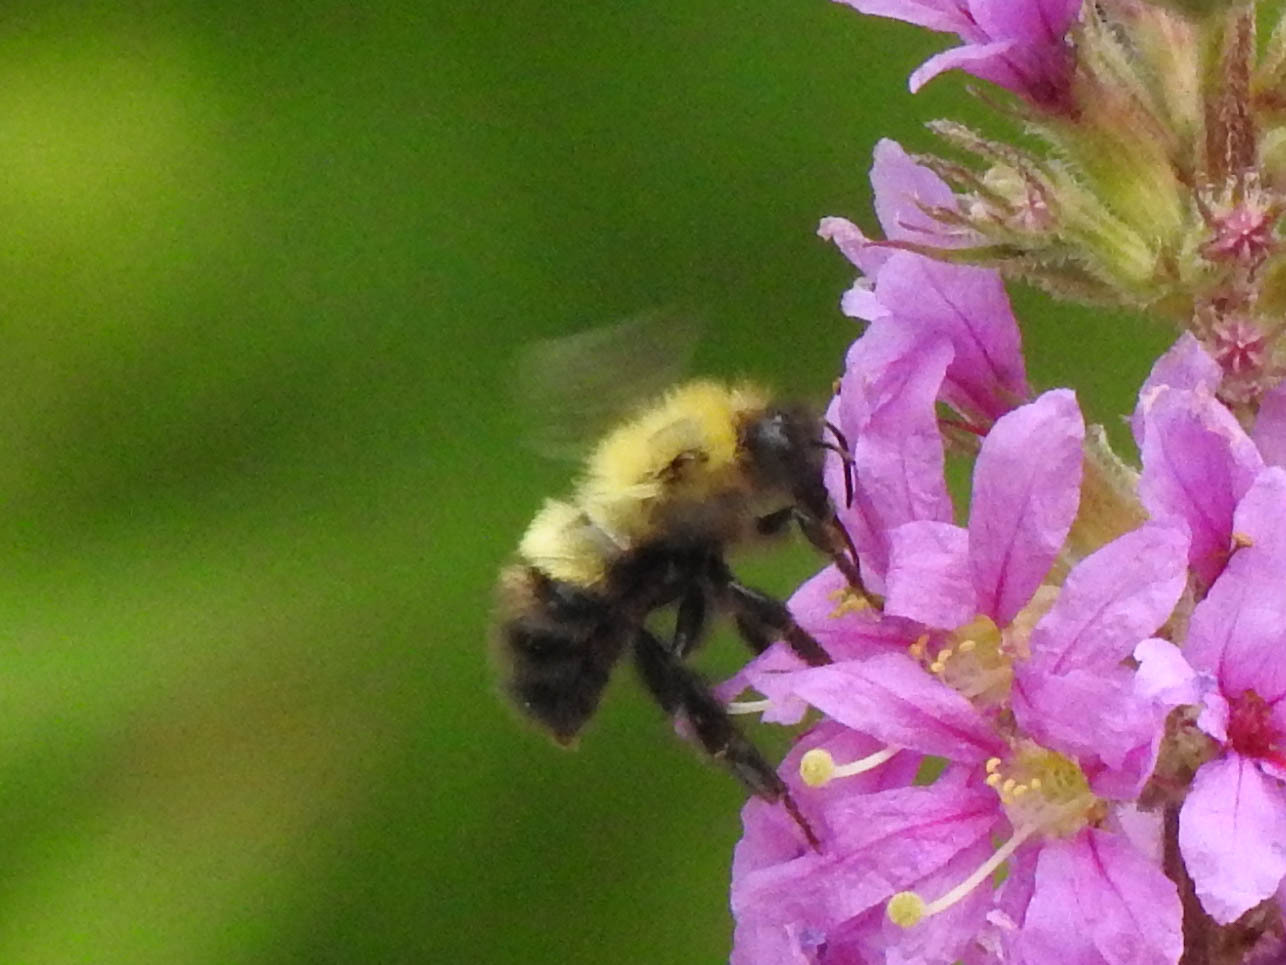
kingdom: Animalia
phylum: Arthropoda
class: Insecta
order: Hymenoptera
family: Apidae
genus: Bombus
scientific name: Bombus perplexus
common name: Confusing bumble bee
